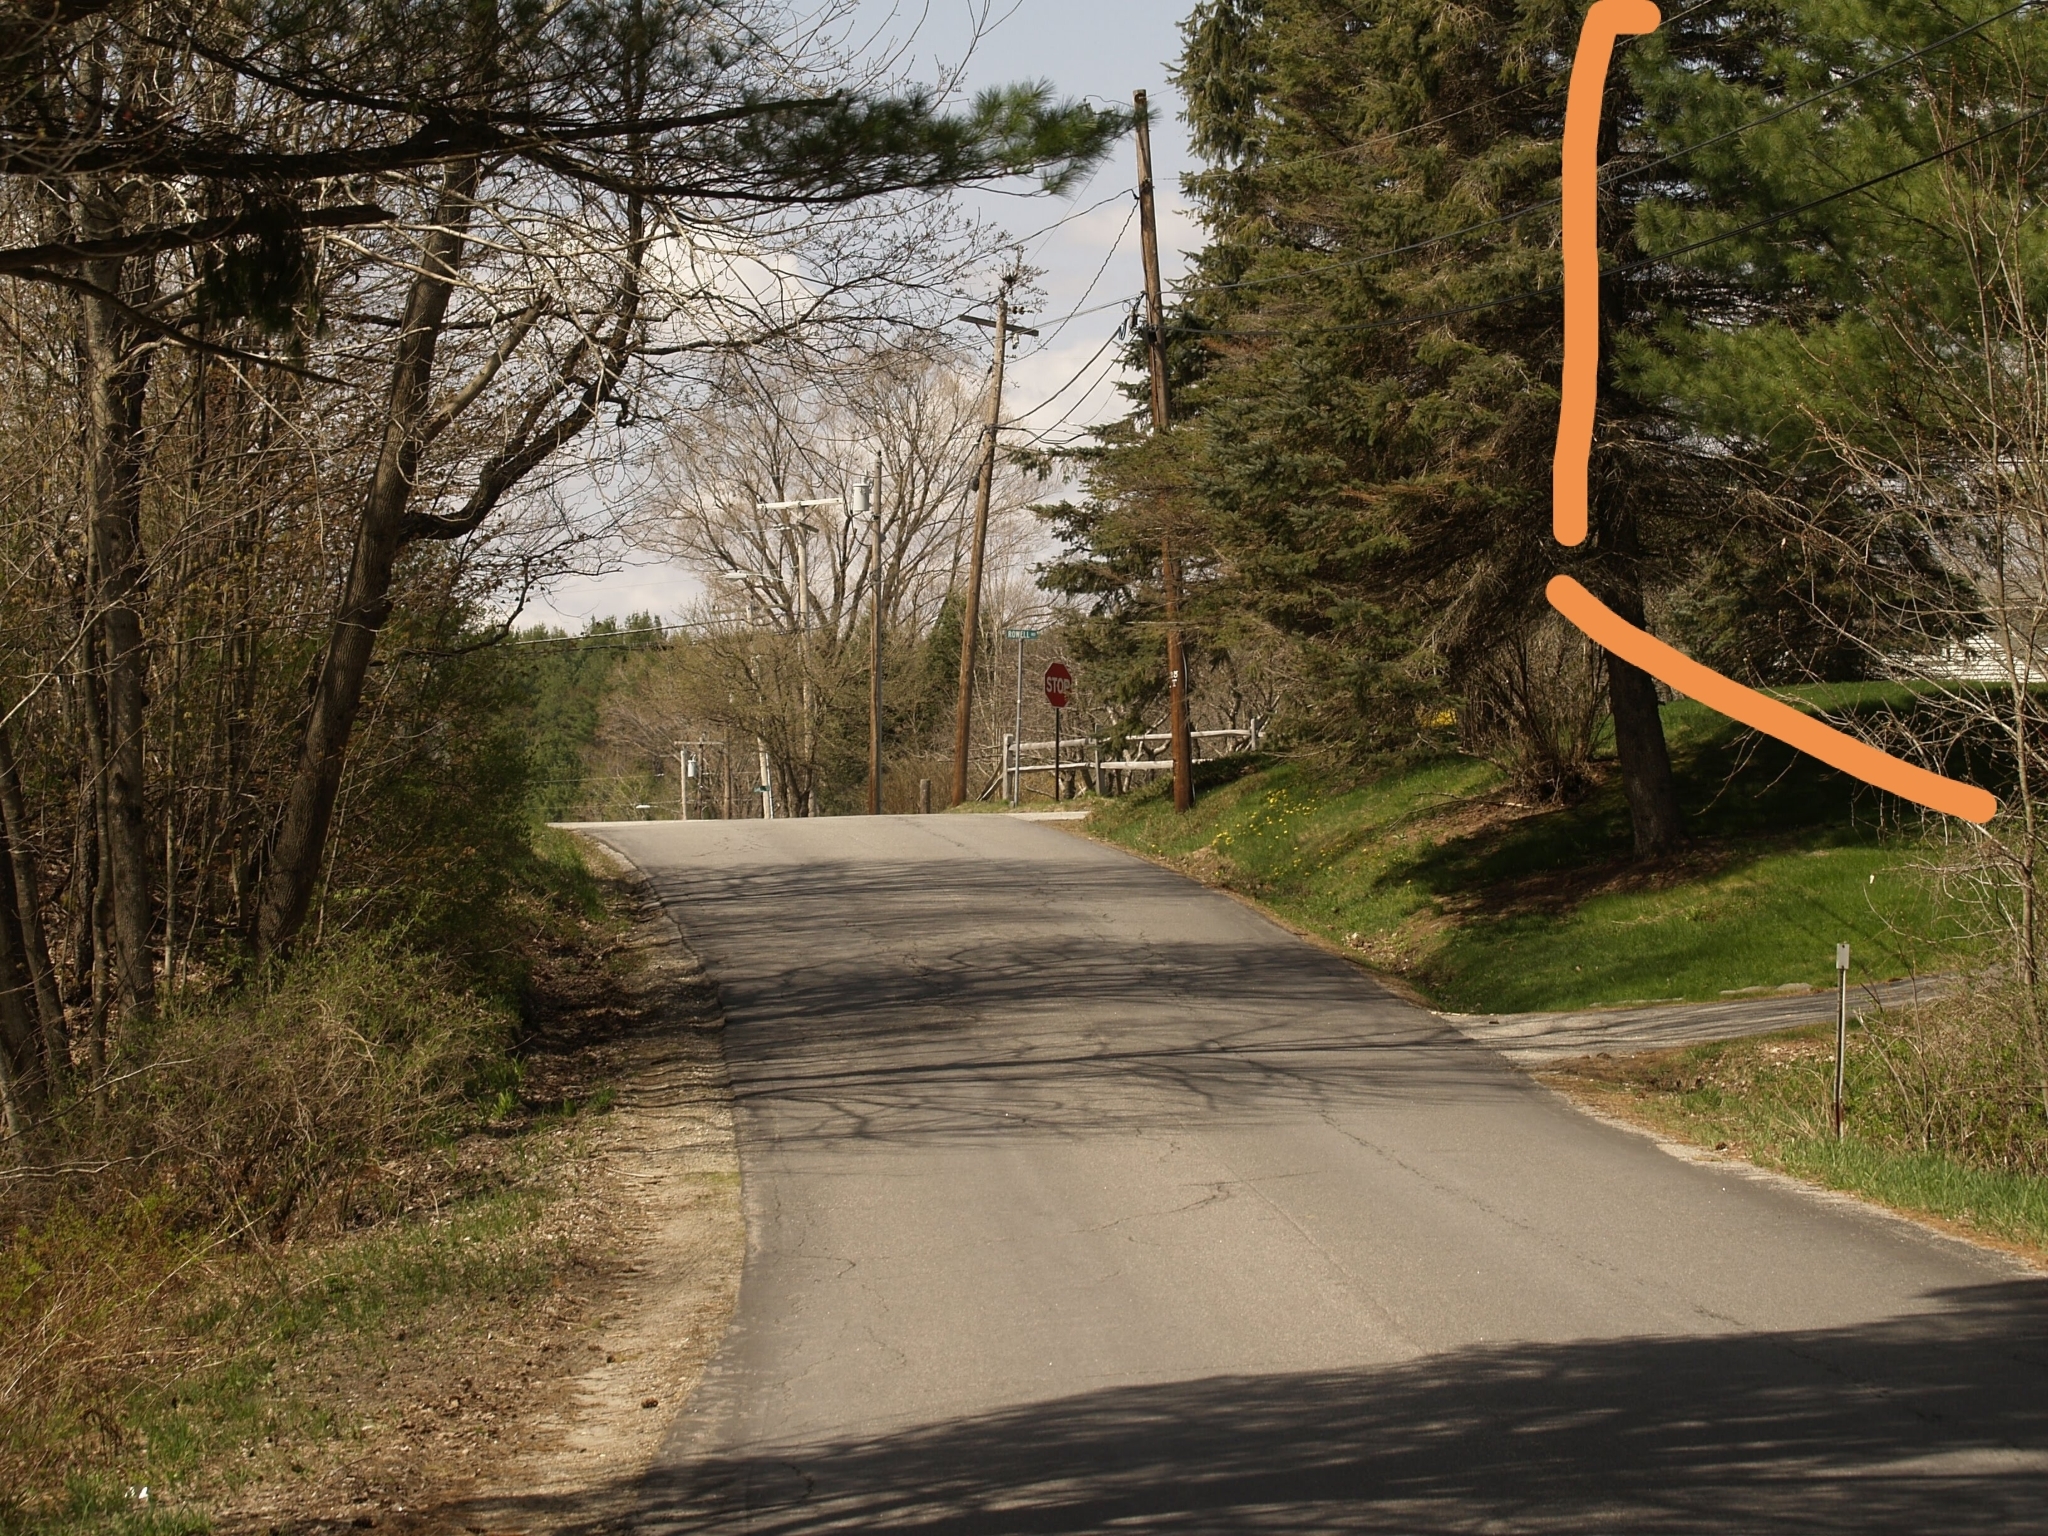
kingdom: Plantae
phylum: Tracheophyta
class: Pinopsida
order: Pinales
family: Pinaceae
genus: Pinus
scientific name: Pinus strobus
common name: Weymouth pine
